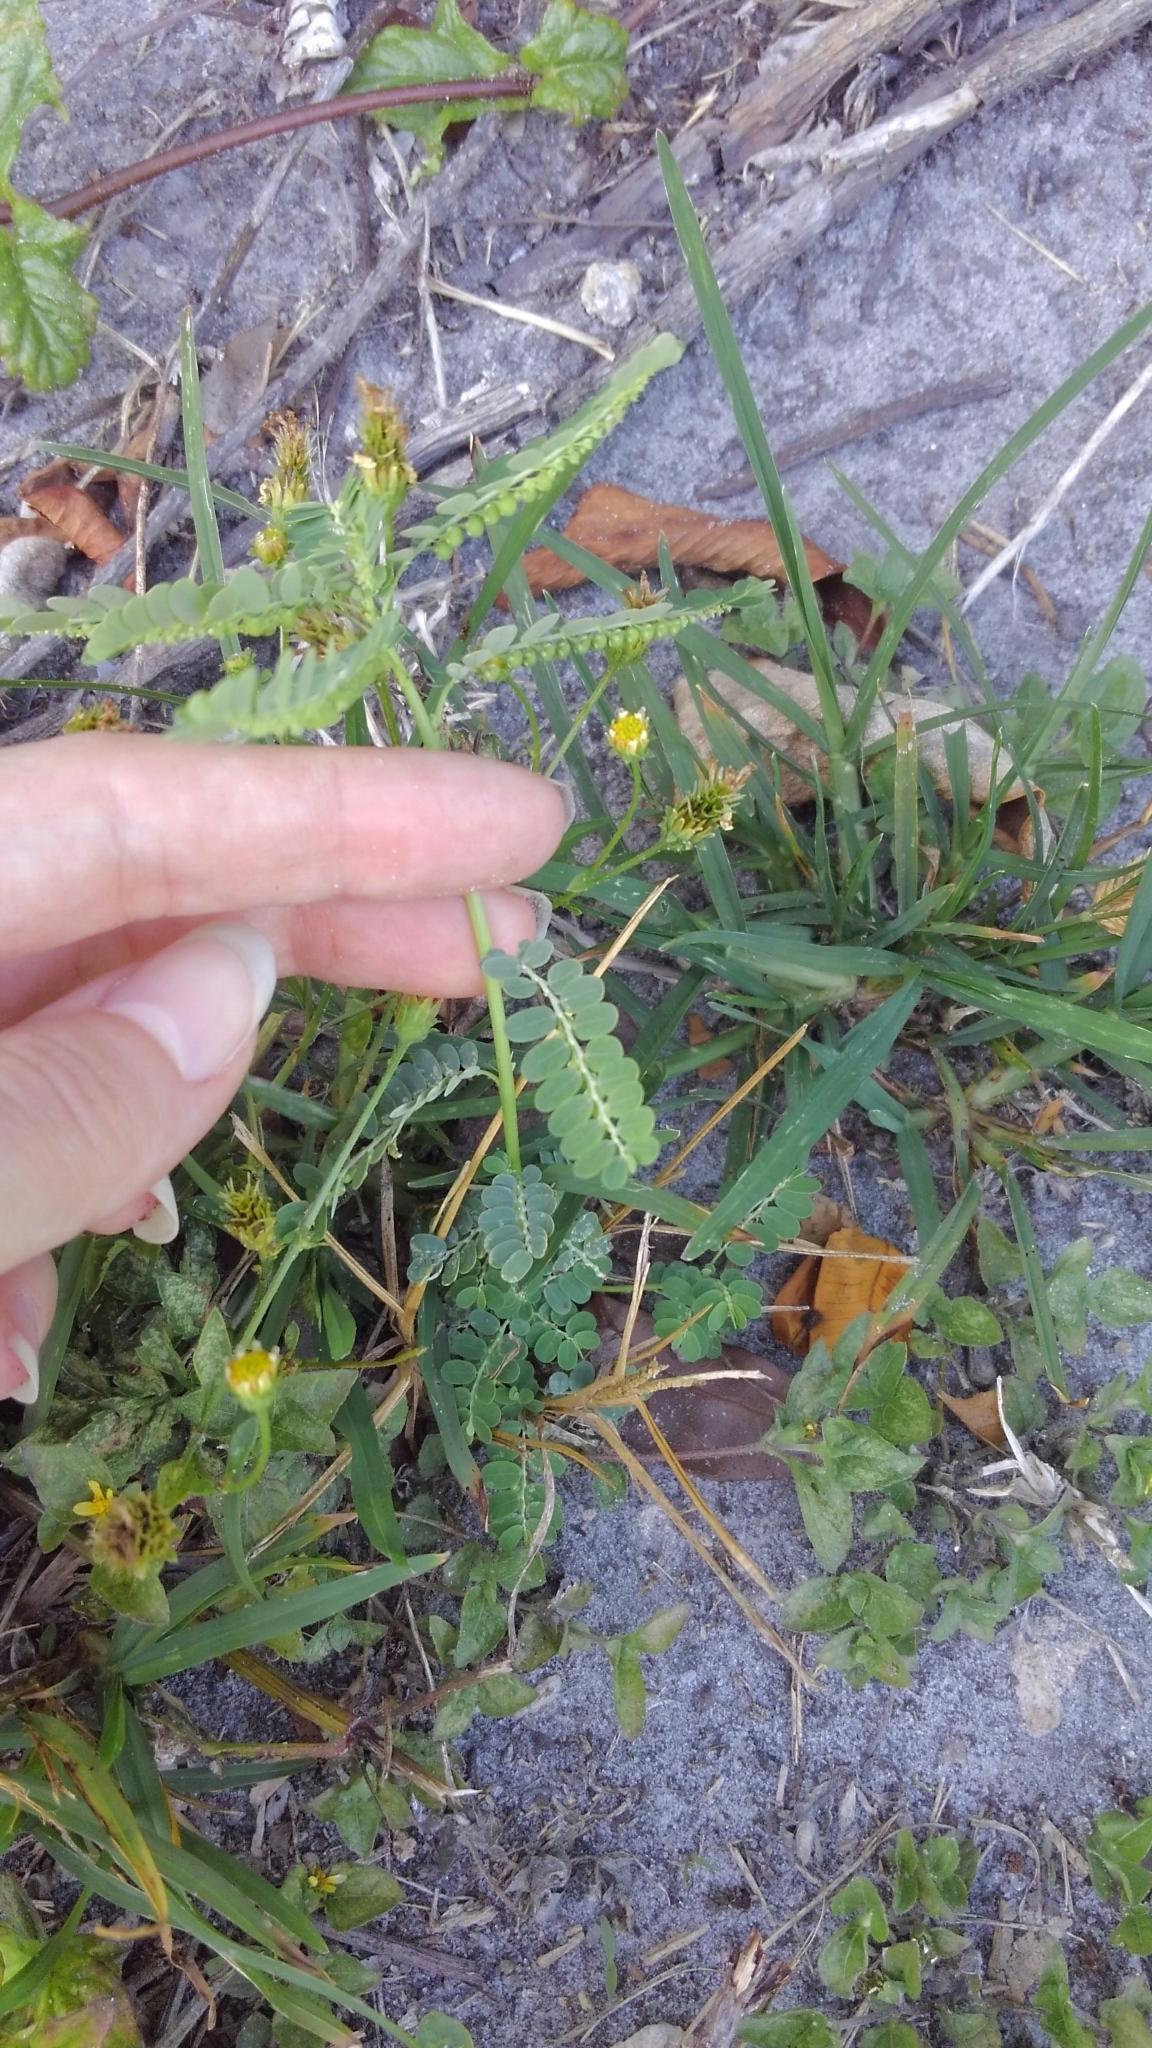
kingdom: Plantae
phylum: Tracheophyta
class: Magnoliopsida
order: Malpighiales
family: Phyllanthaceae
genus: Phyllanthus
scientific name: Phyllanthus urinaria
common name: Chamber bitter
